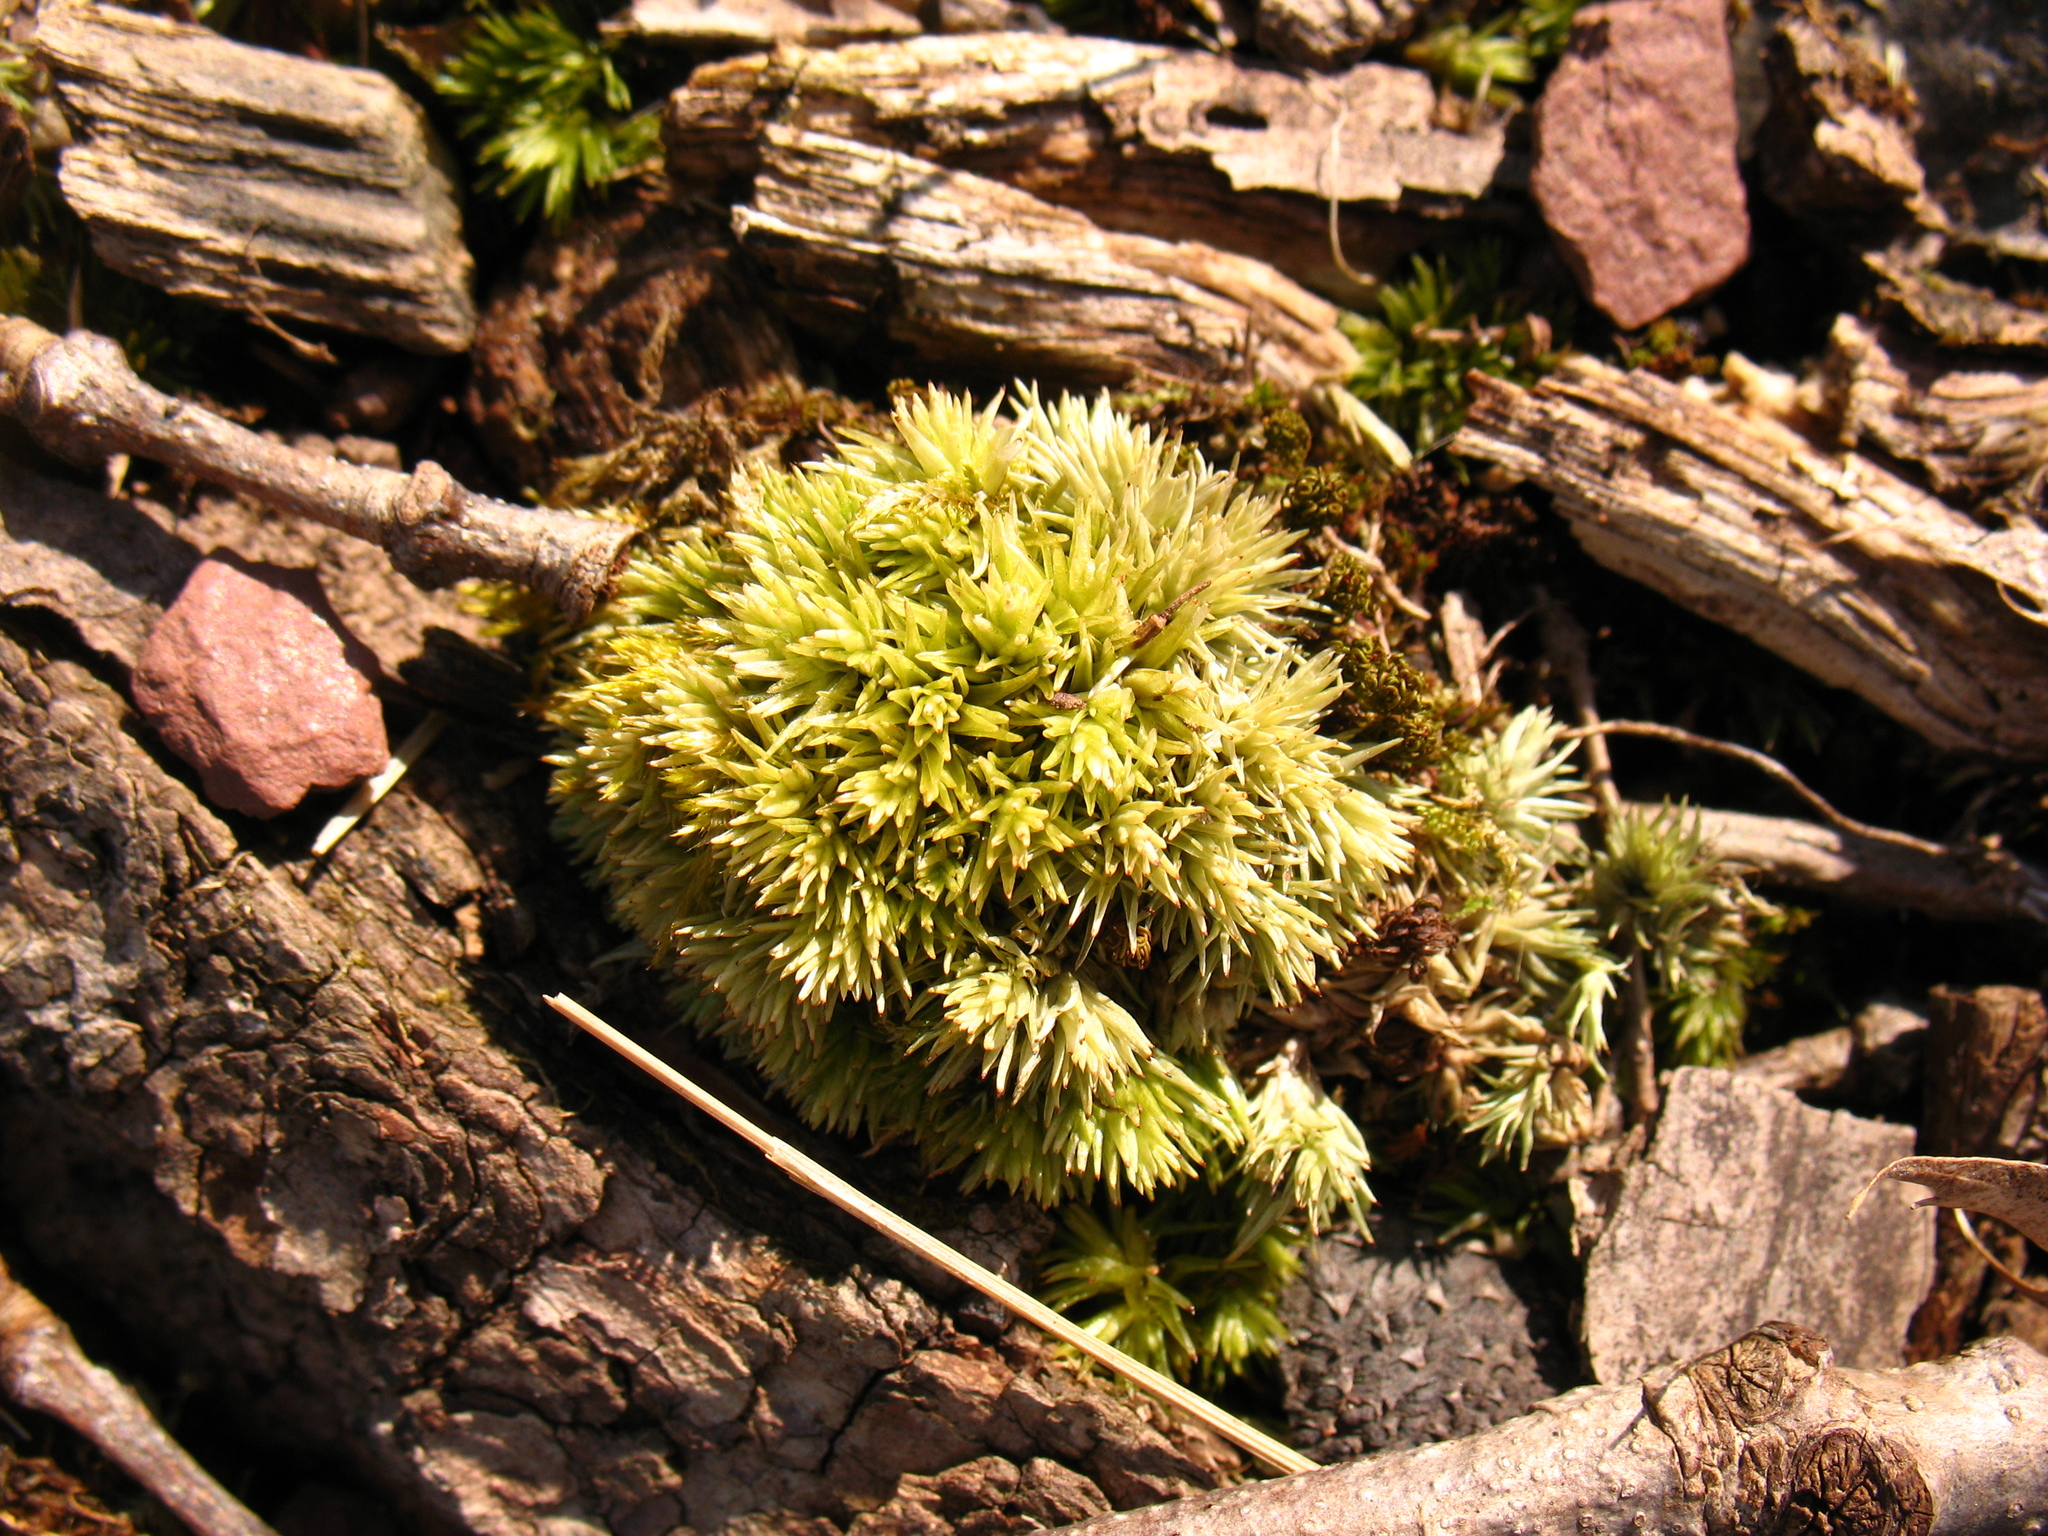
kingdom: Plantae
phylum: Bryophyta
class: Bryopsida
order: Dicranales
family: Leucobryaceae
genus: Leucobryum
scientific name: Leucobryum glaucum
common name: Large white-moss
